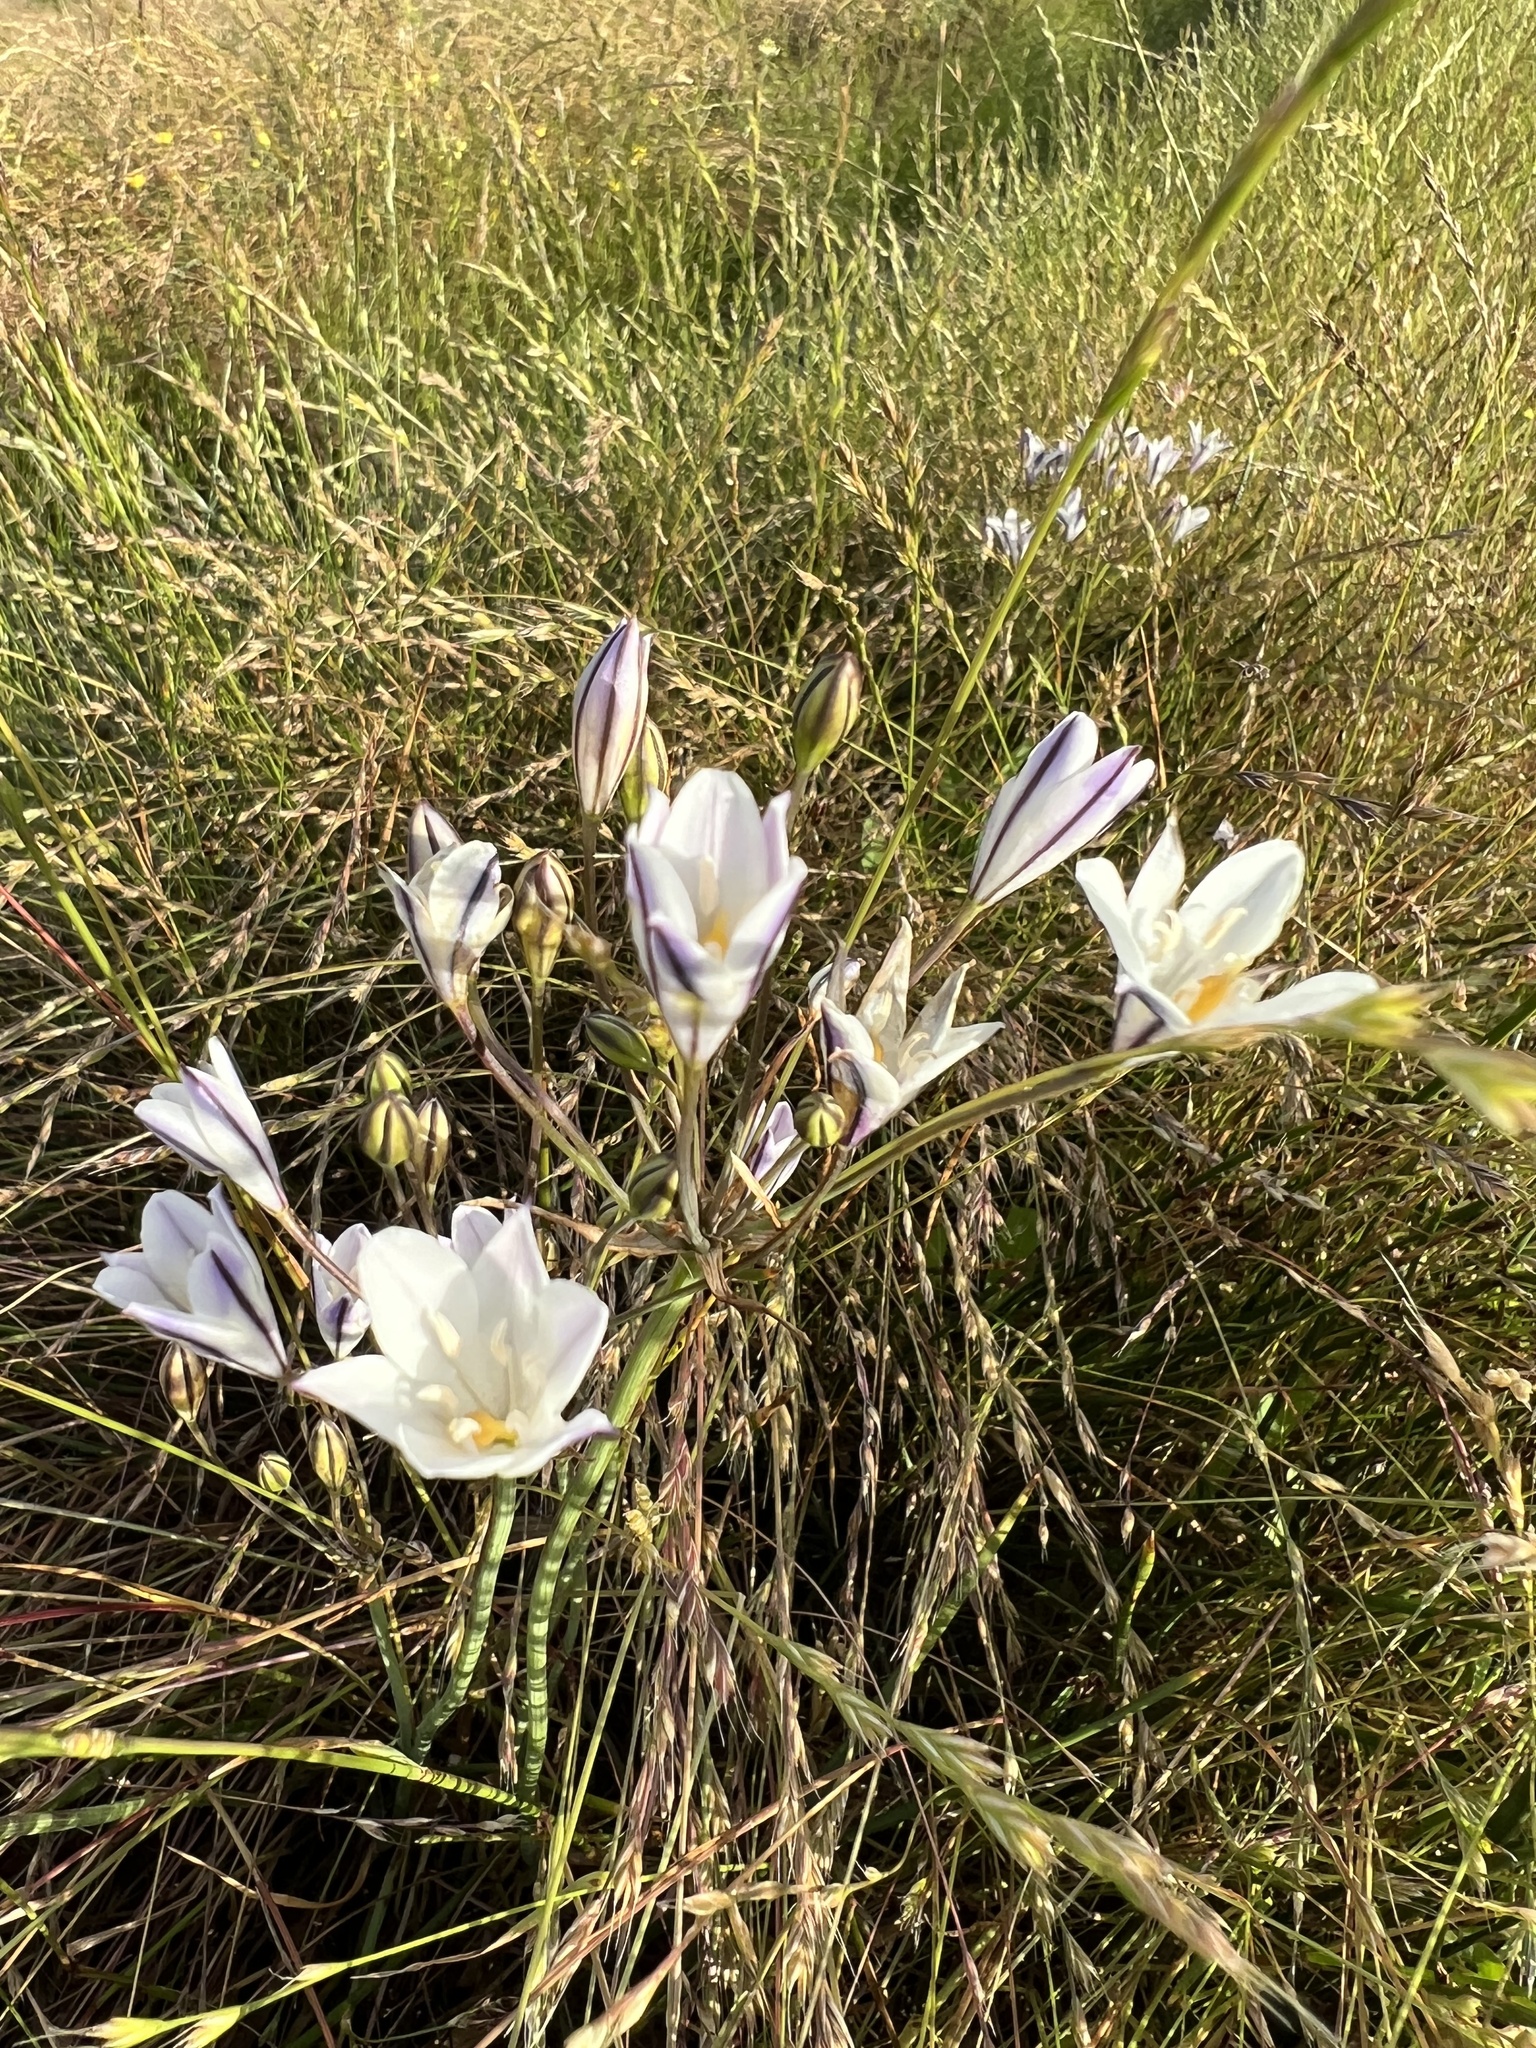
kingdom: Plantae
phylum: Tracheophyta
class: Liliopsida
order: Asparagales
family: Asparagaceae
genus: Triteleia
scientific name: Triteleia peduncularis
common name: Long-ray brodiaea
